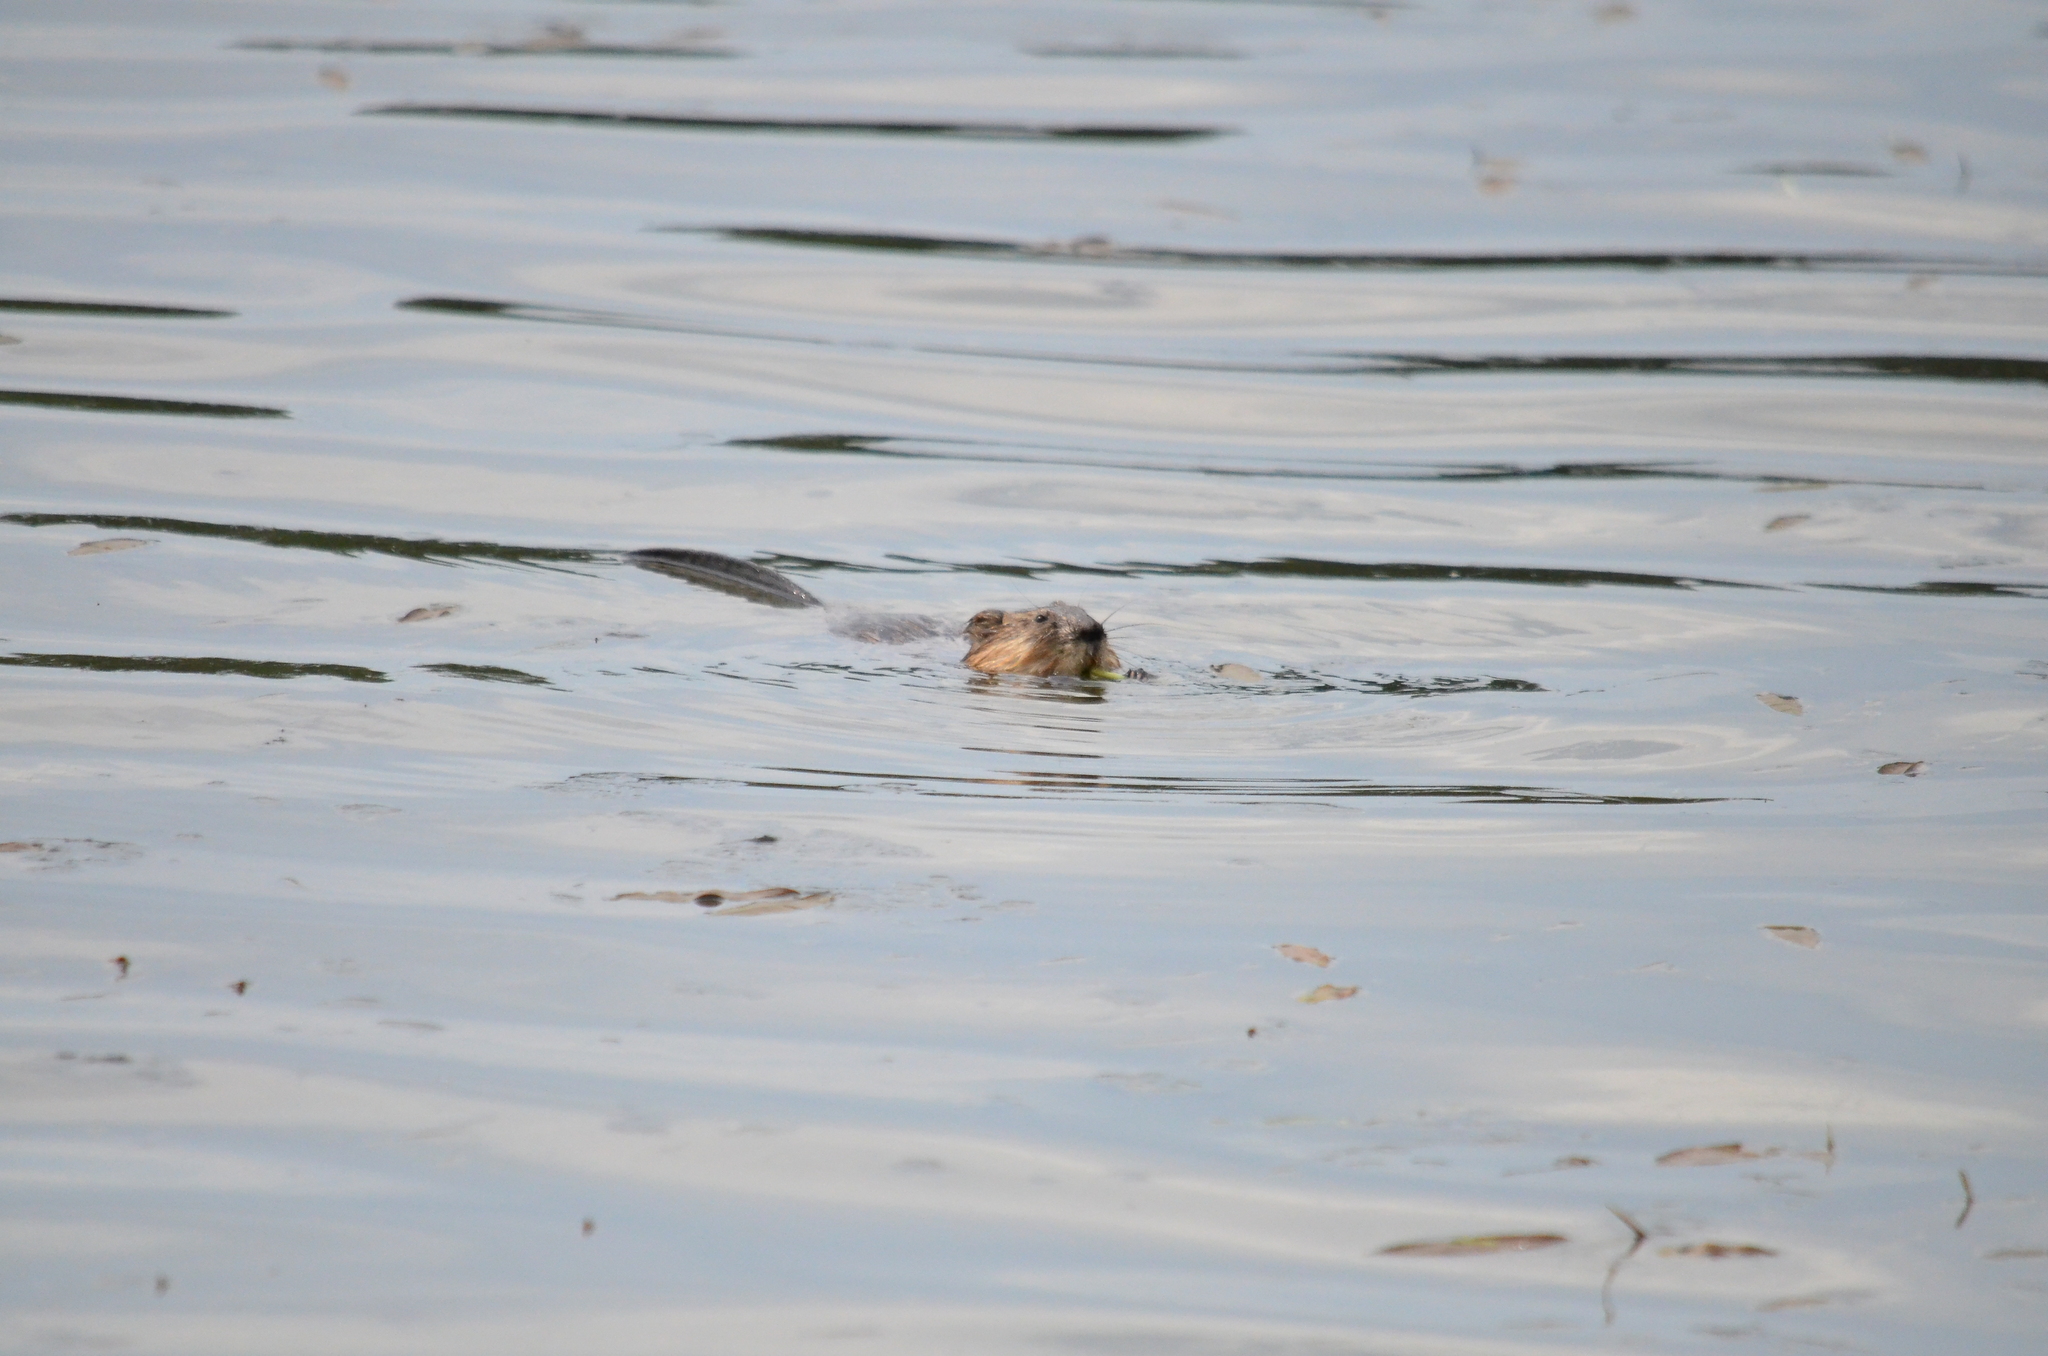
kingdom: Animalia
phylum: Chordata
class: Mammalia
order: Rodentia
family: Cricetidae
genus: Ondatra
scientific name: Ondatra zibethicus
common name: Muskrat
